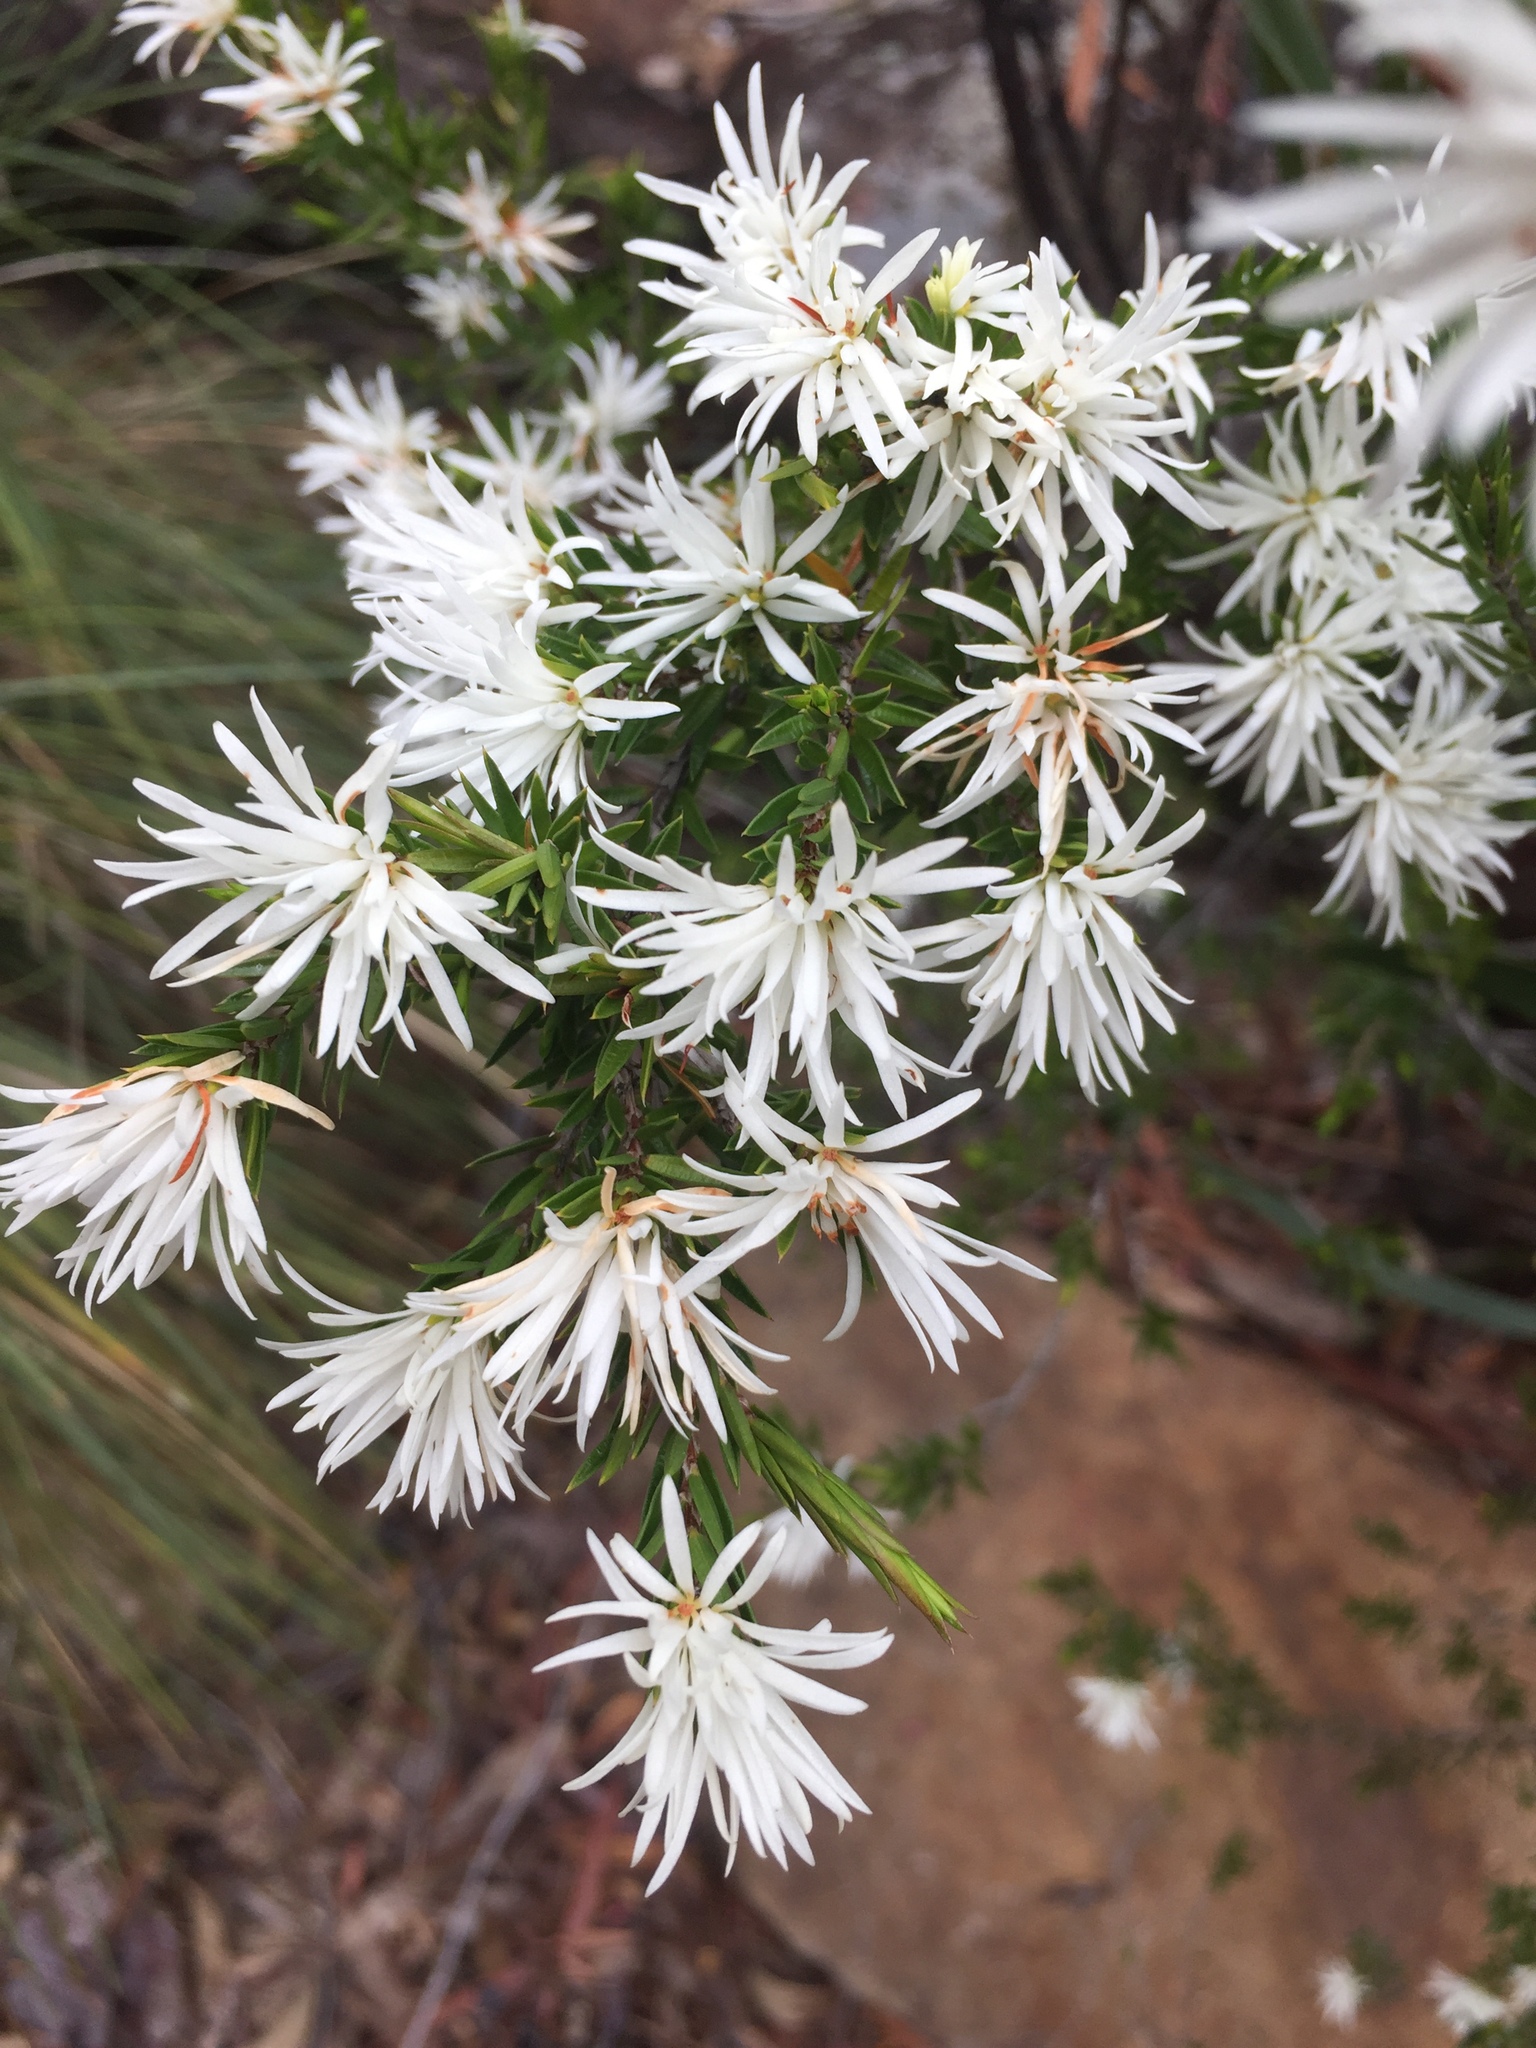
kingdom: Plantae
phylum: Tracheophyta
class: Magnoliopsida
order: Malpighiales
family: Picrodendraceae
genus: Pseudanthus
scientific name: Pseudanthus pimeleoides
